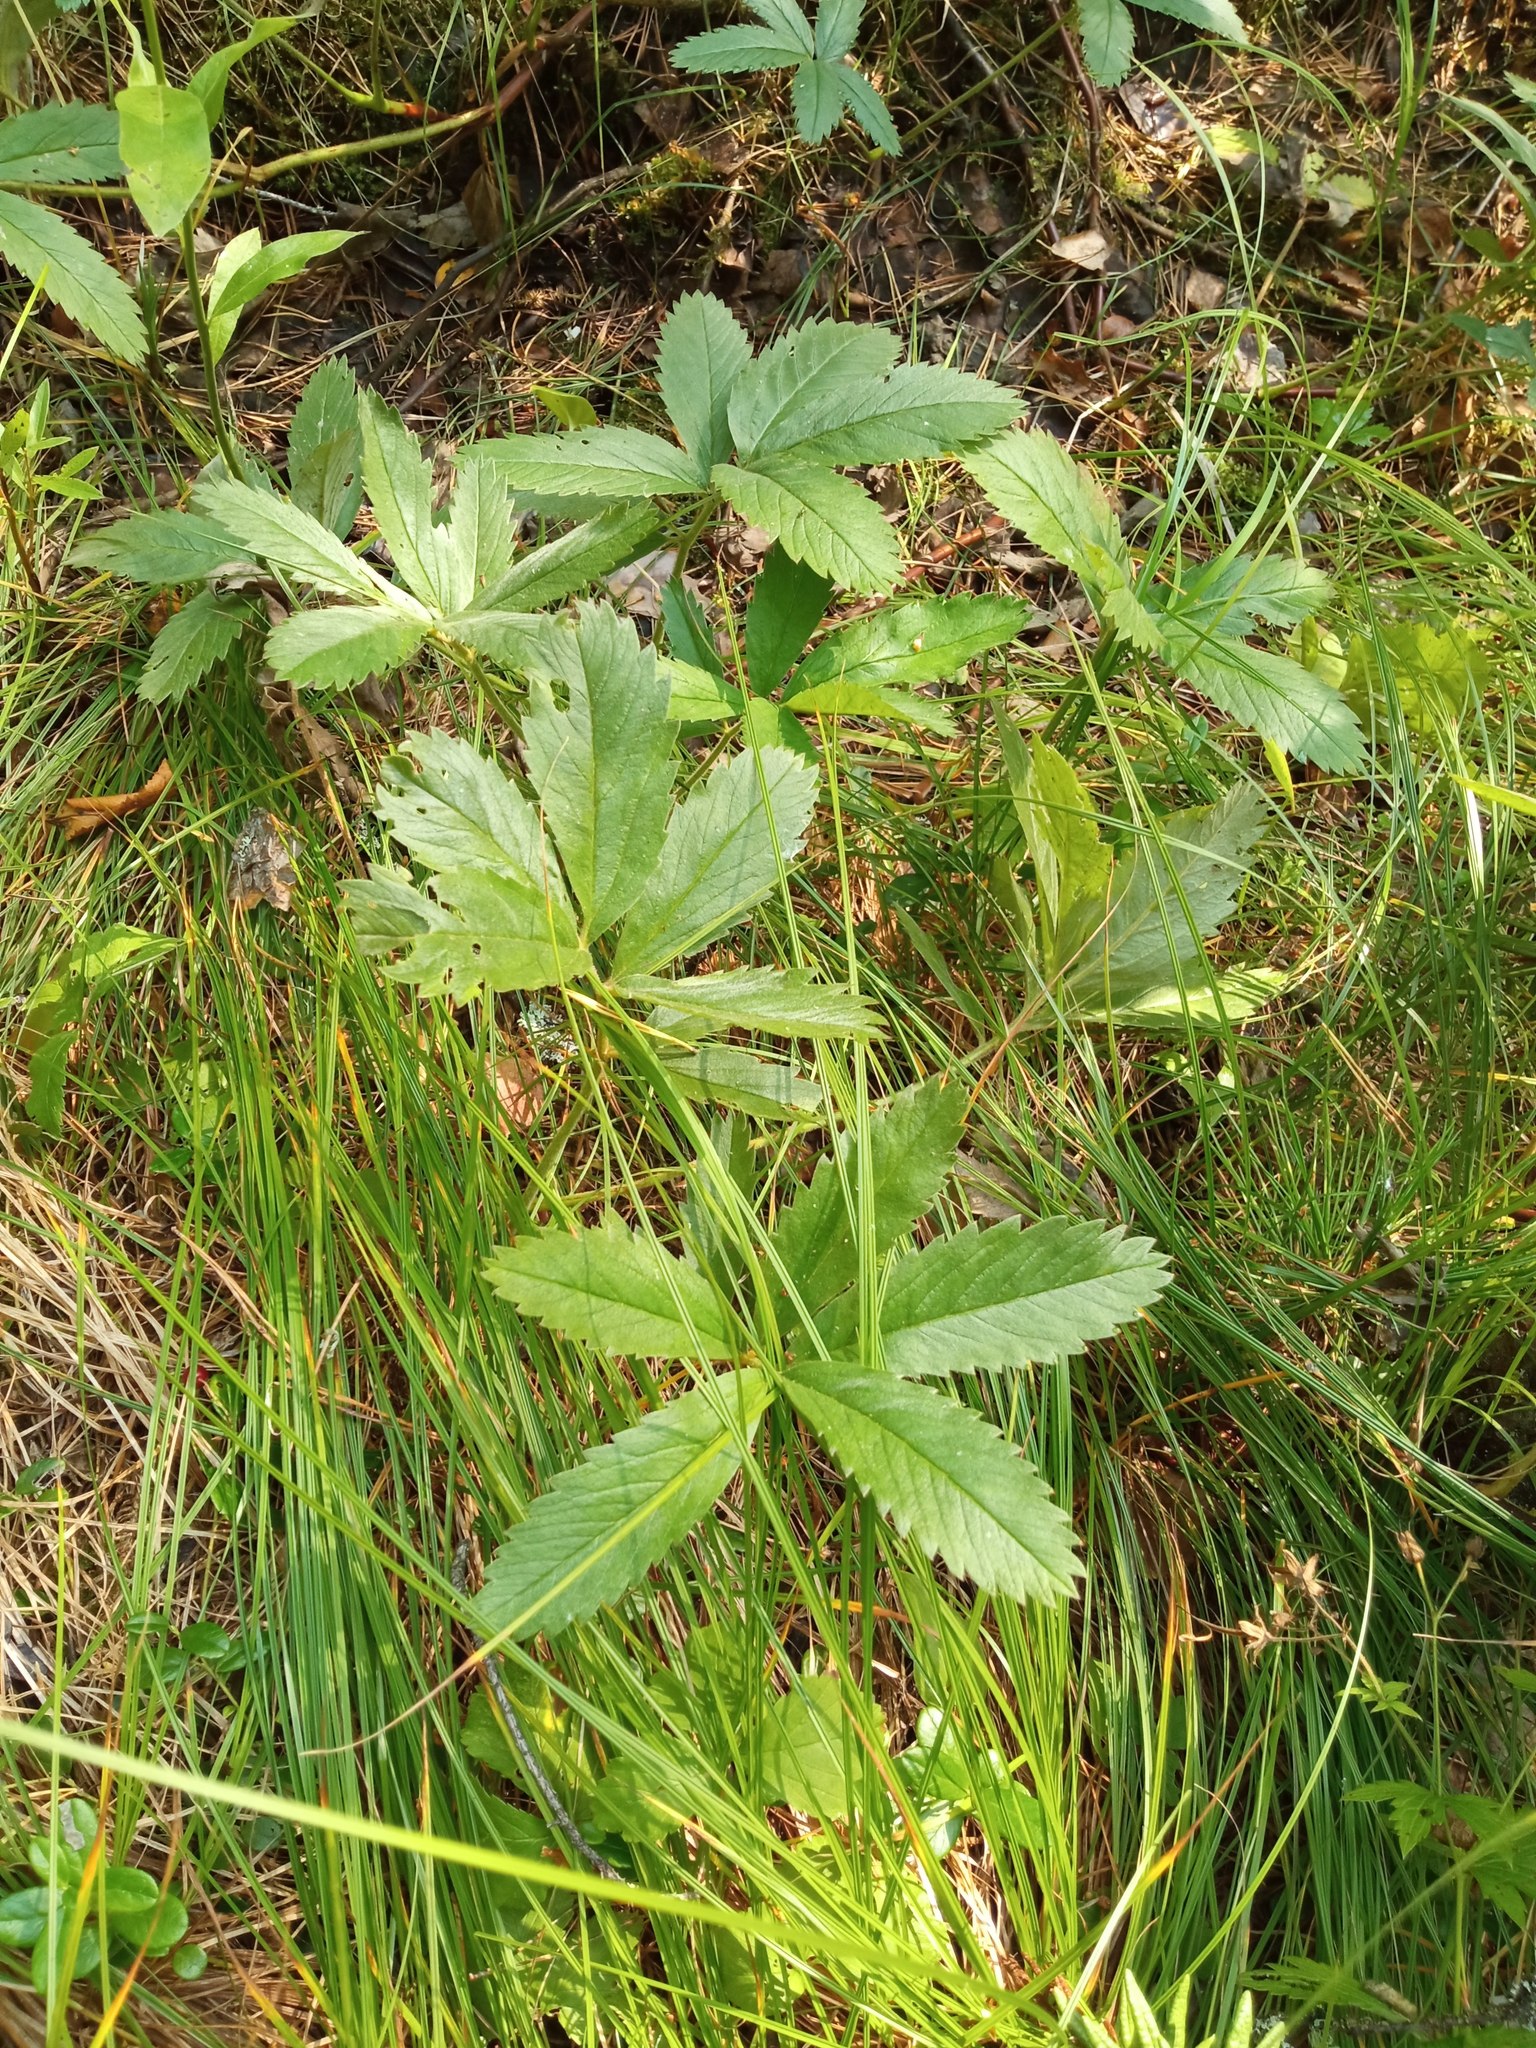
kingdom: Plantae
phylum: Tracheophyta
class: Magnoliopsida
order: Rosales
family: Rosaceae
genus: Comarum
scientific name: Comarum palustre
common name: Marsh cinquefoil
